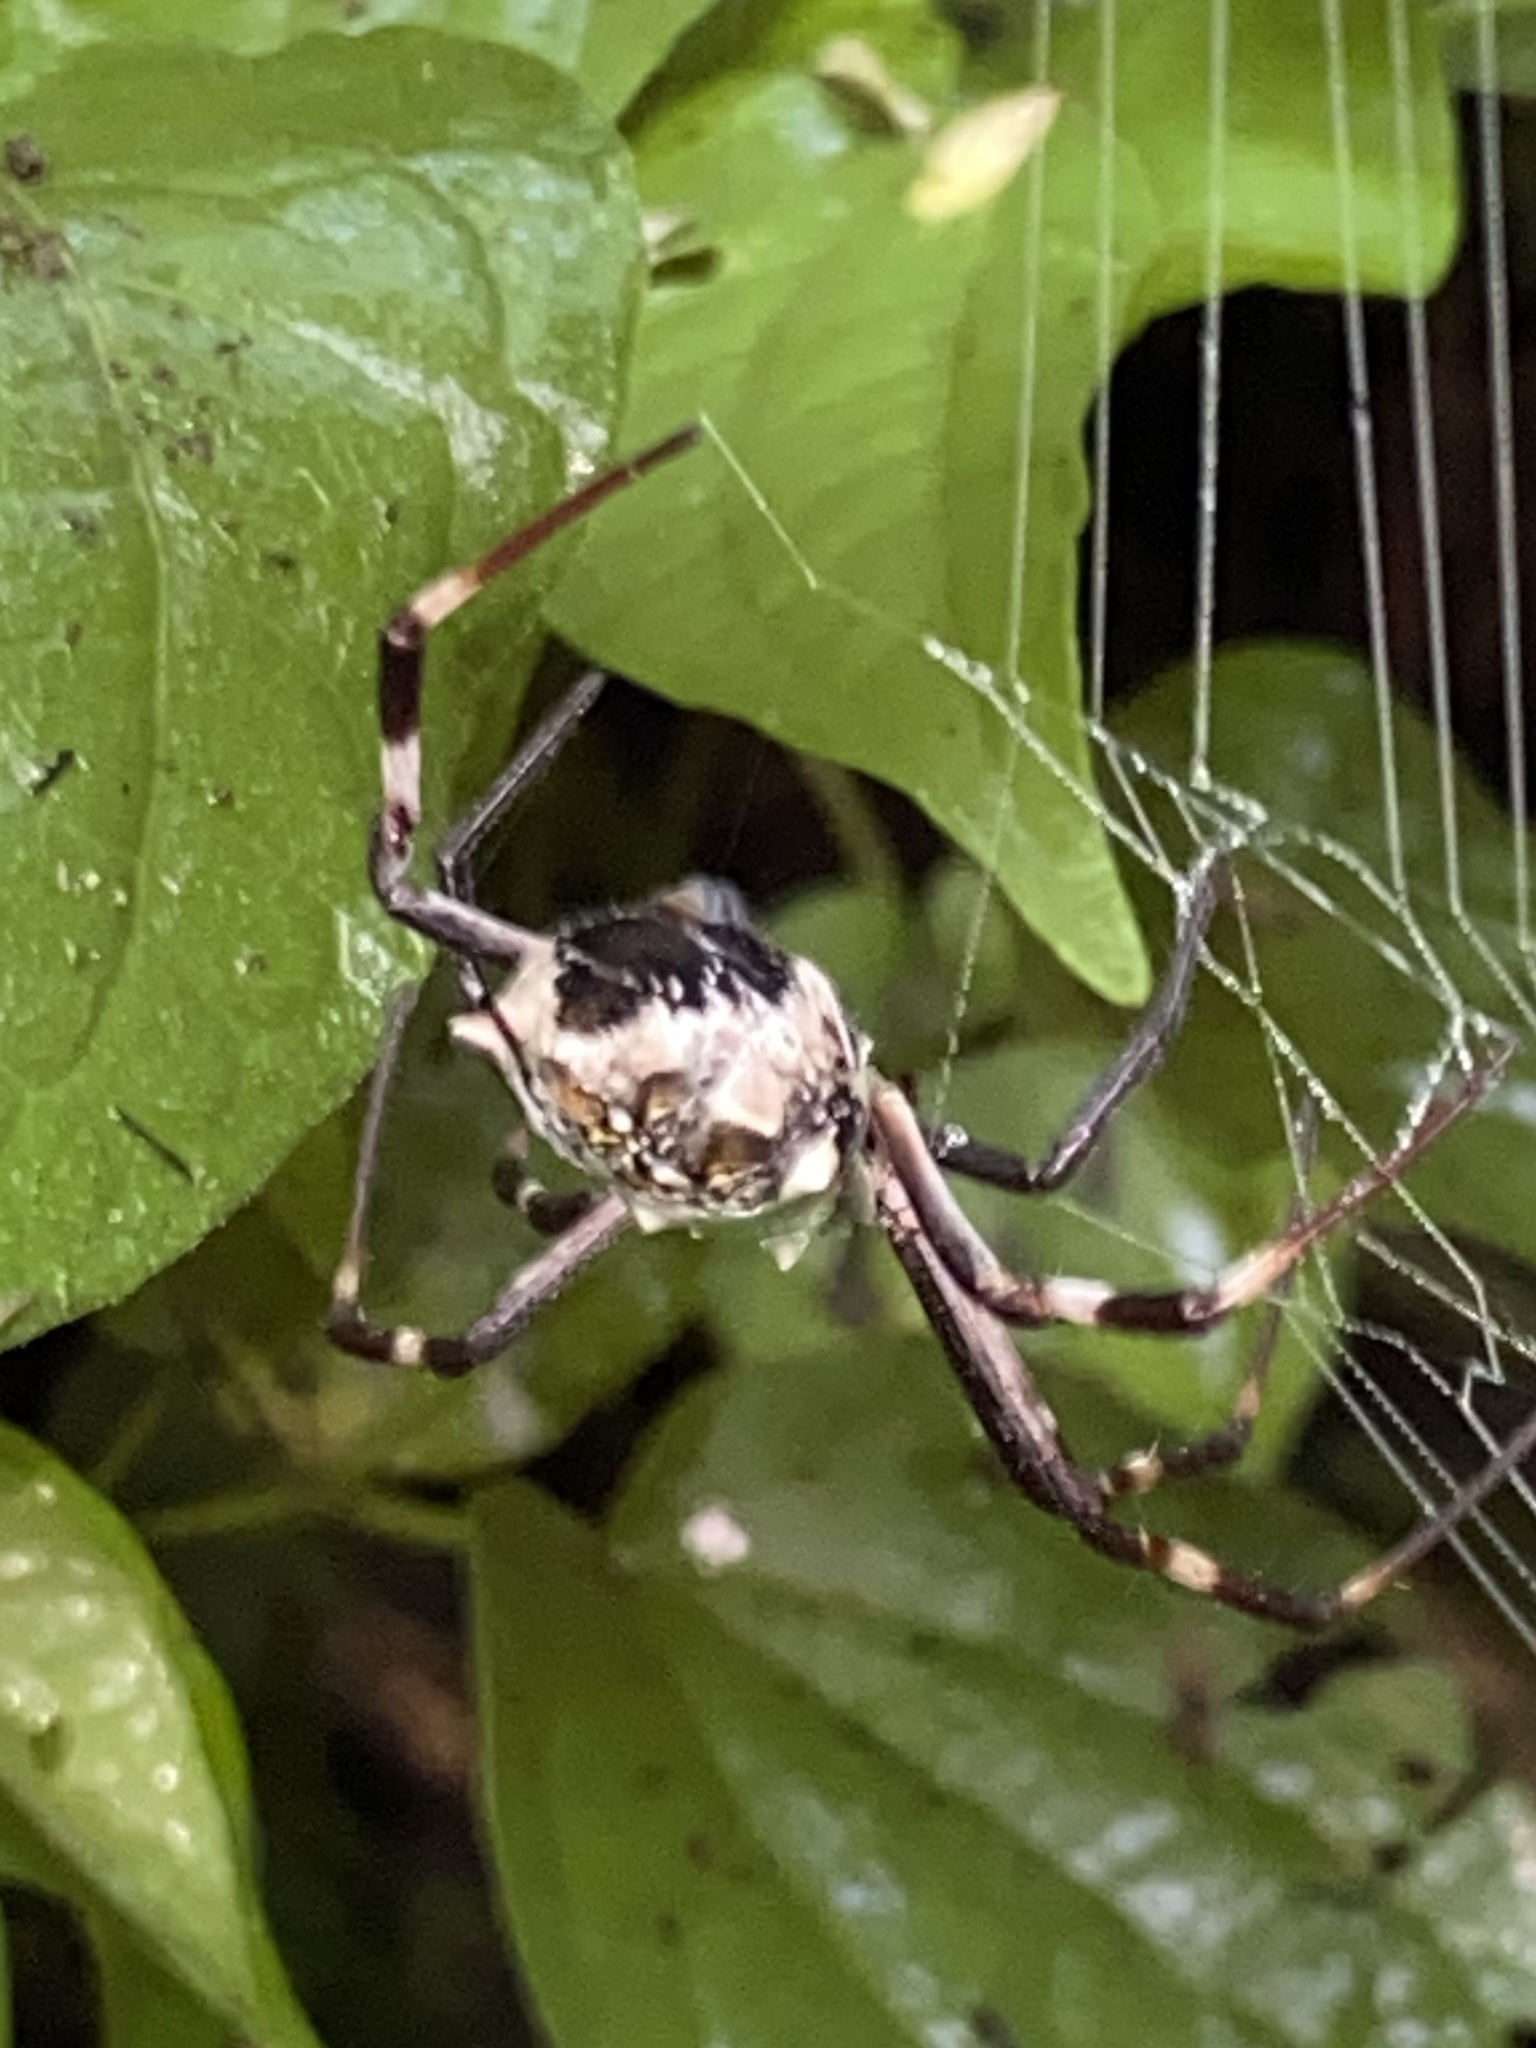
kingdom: Animalia
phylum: Arthropoda
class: Arachnida
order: Araneae
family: Araneidae
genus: Argiope
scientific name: Argiope blanda
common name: Orb weavers
